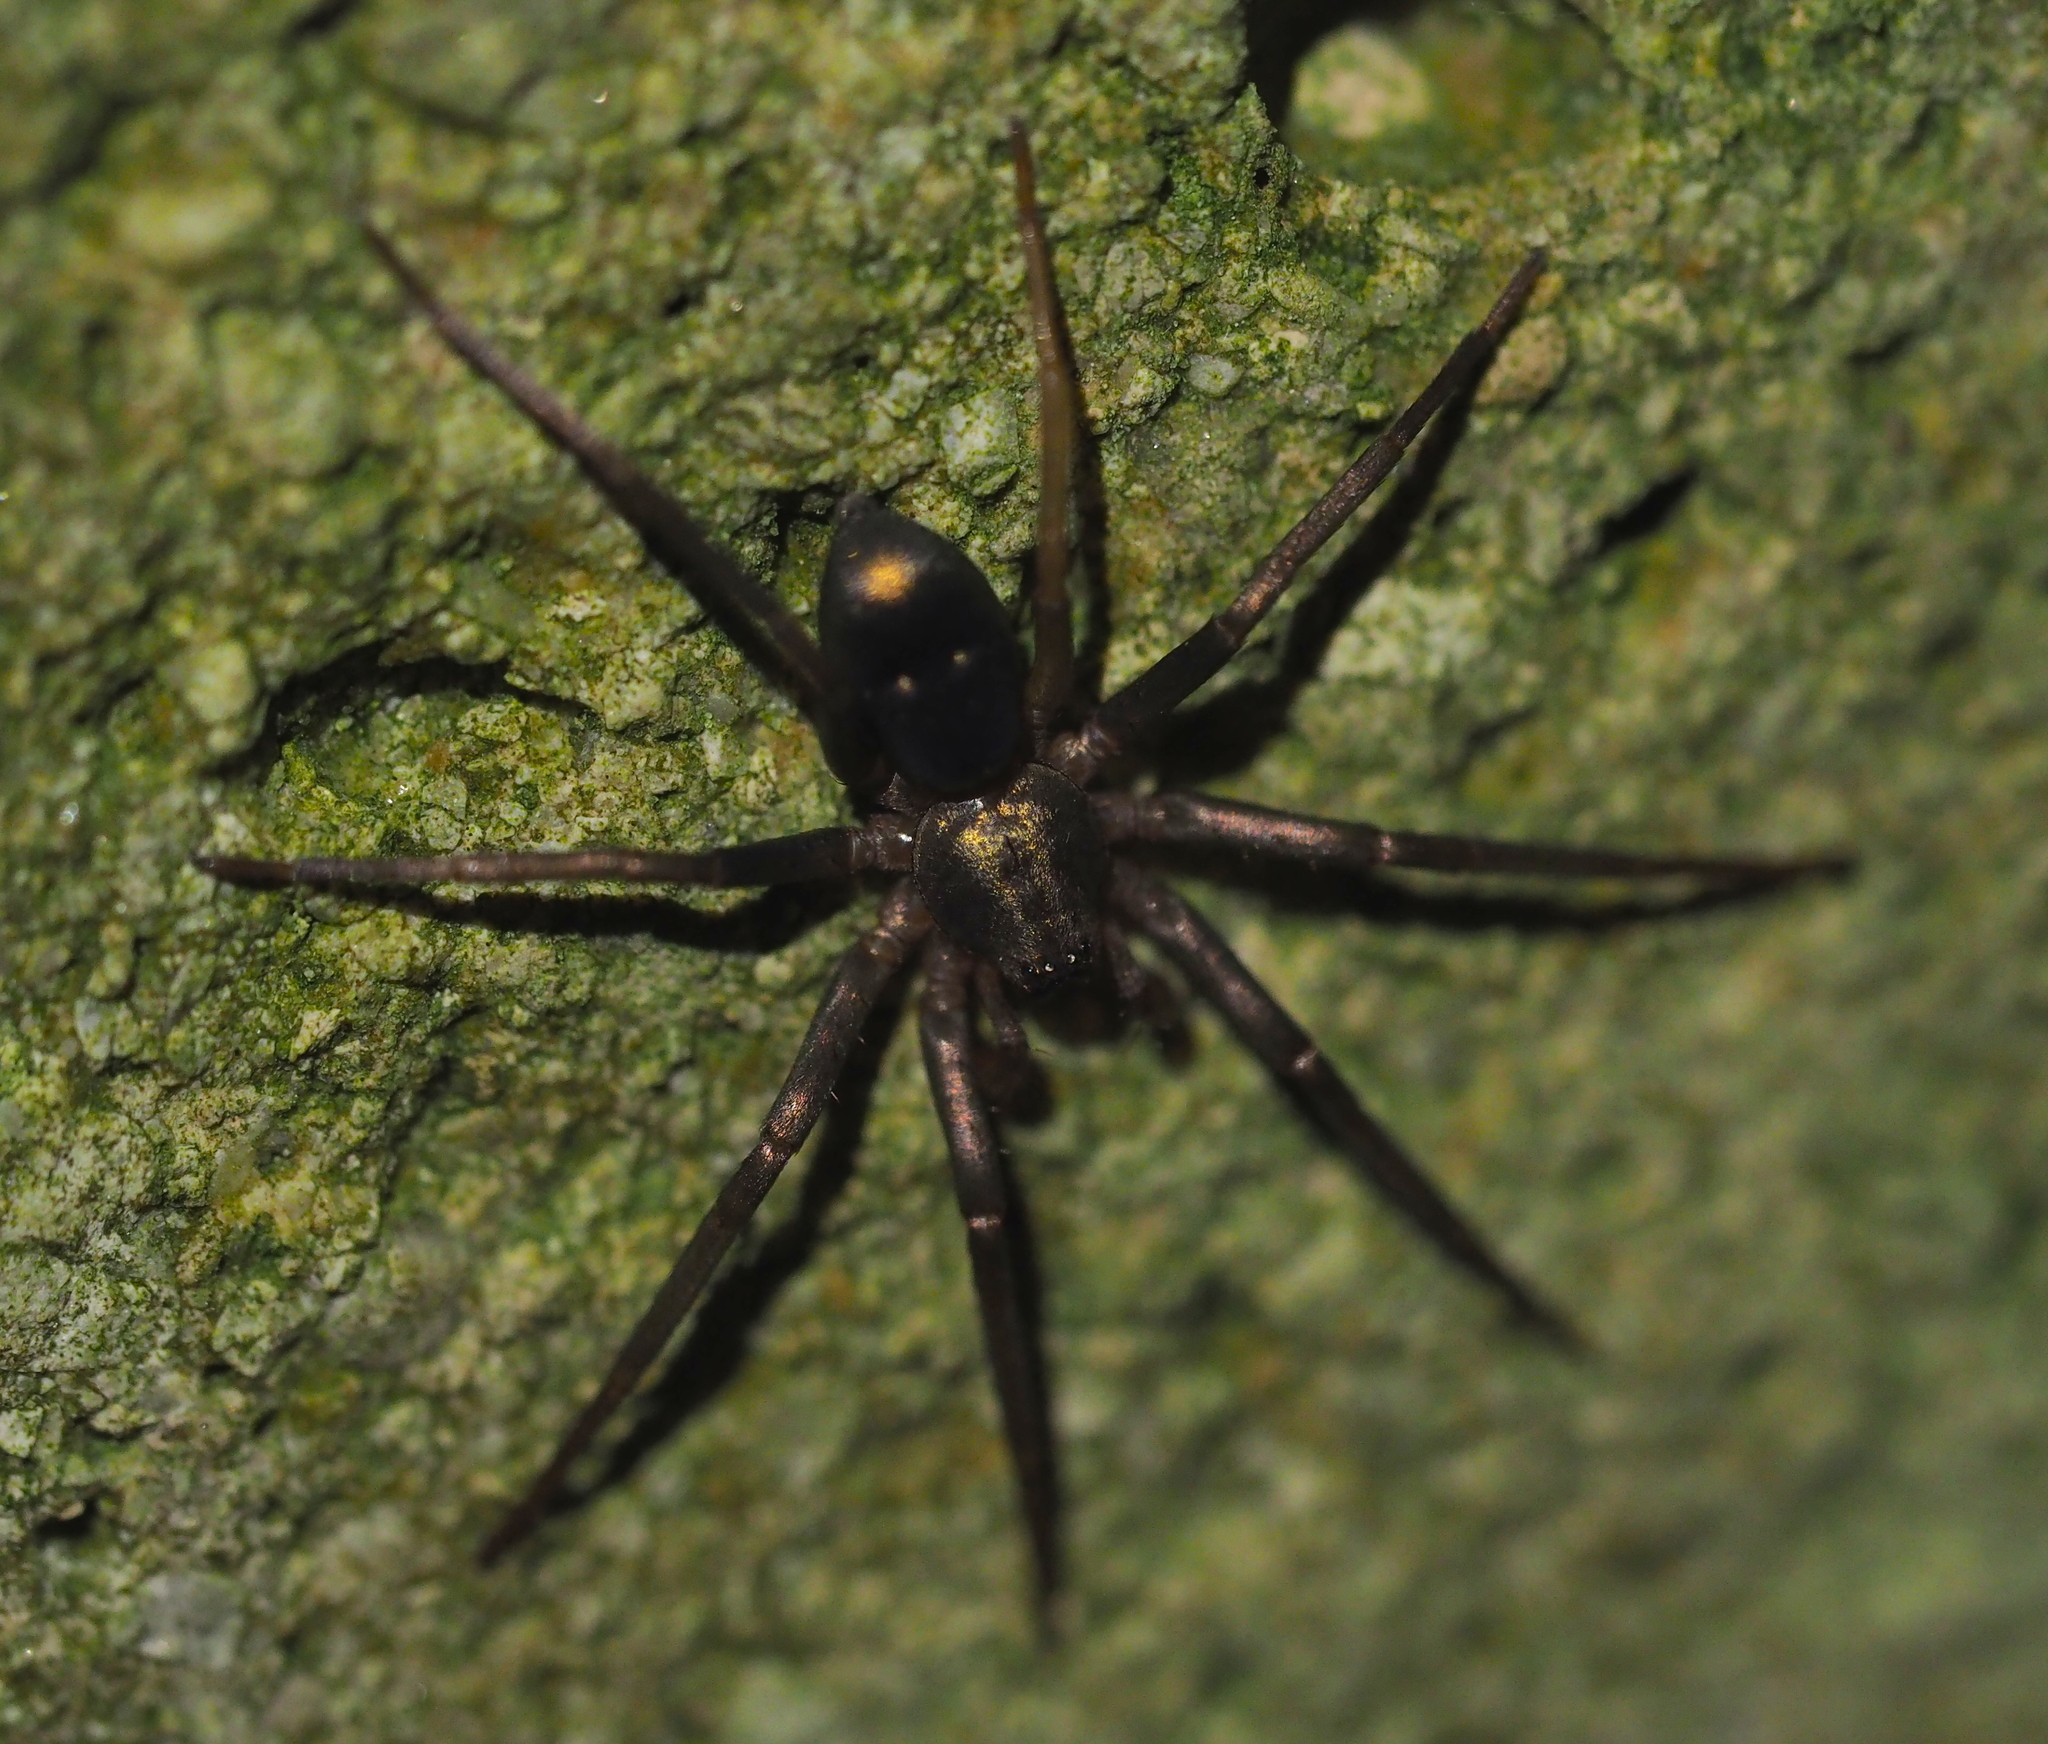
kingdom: Animalia
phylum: Arthropoda
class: Arachnida
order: Araneae
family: Liocranidae
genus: Sagana
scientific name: Sagana rutilans
